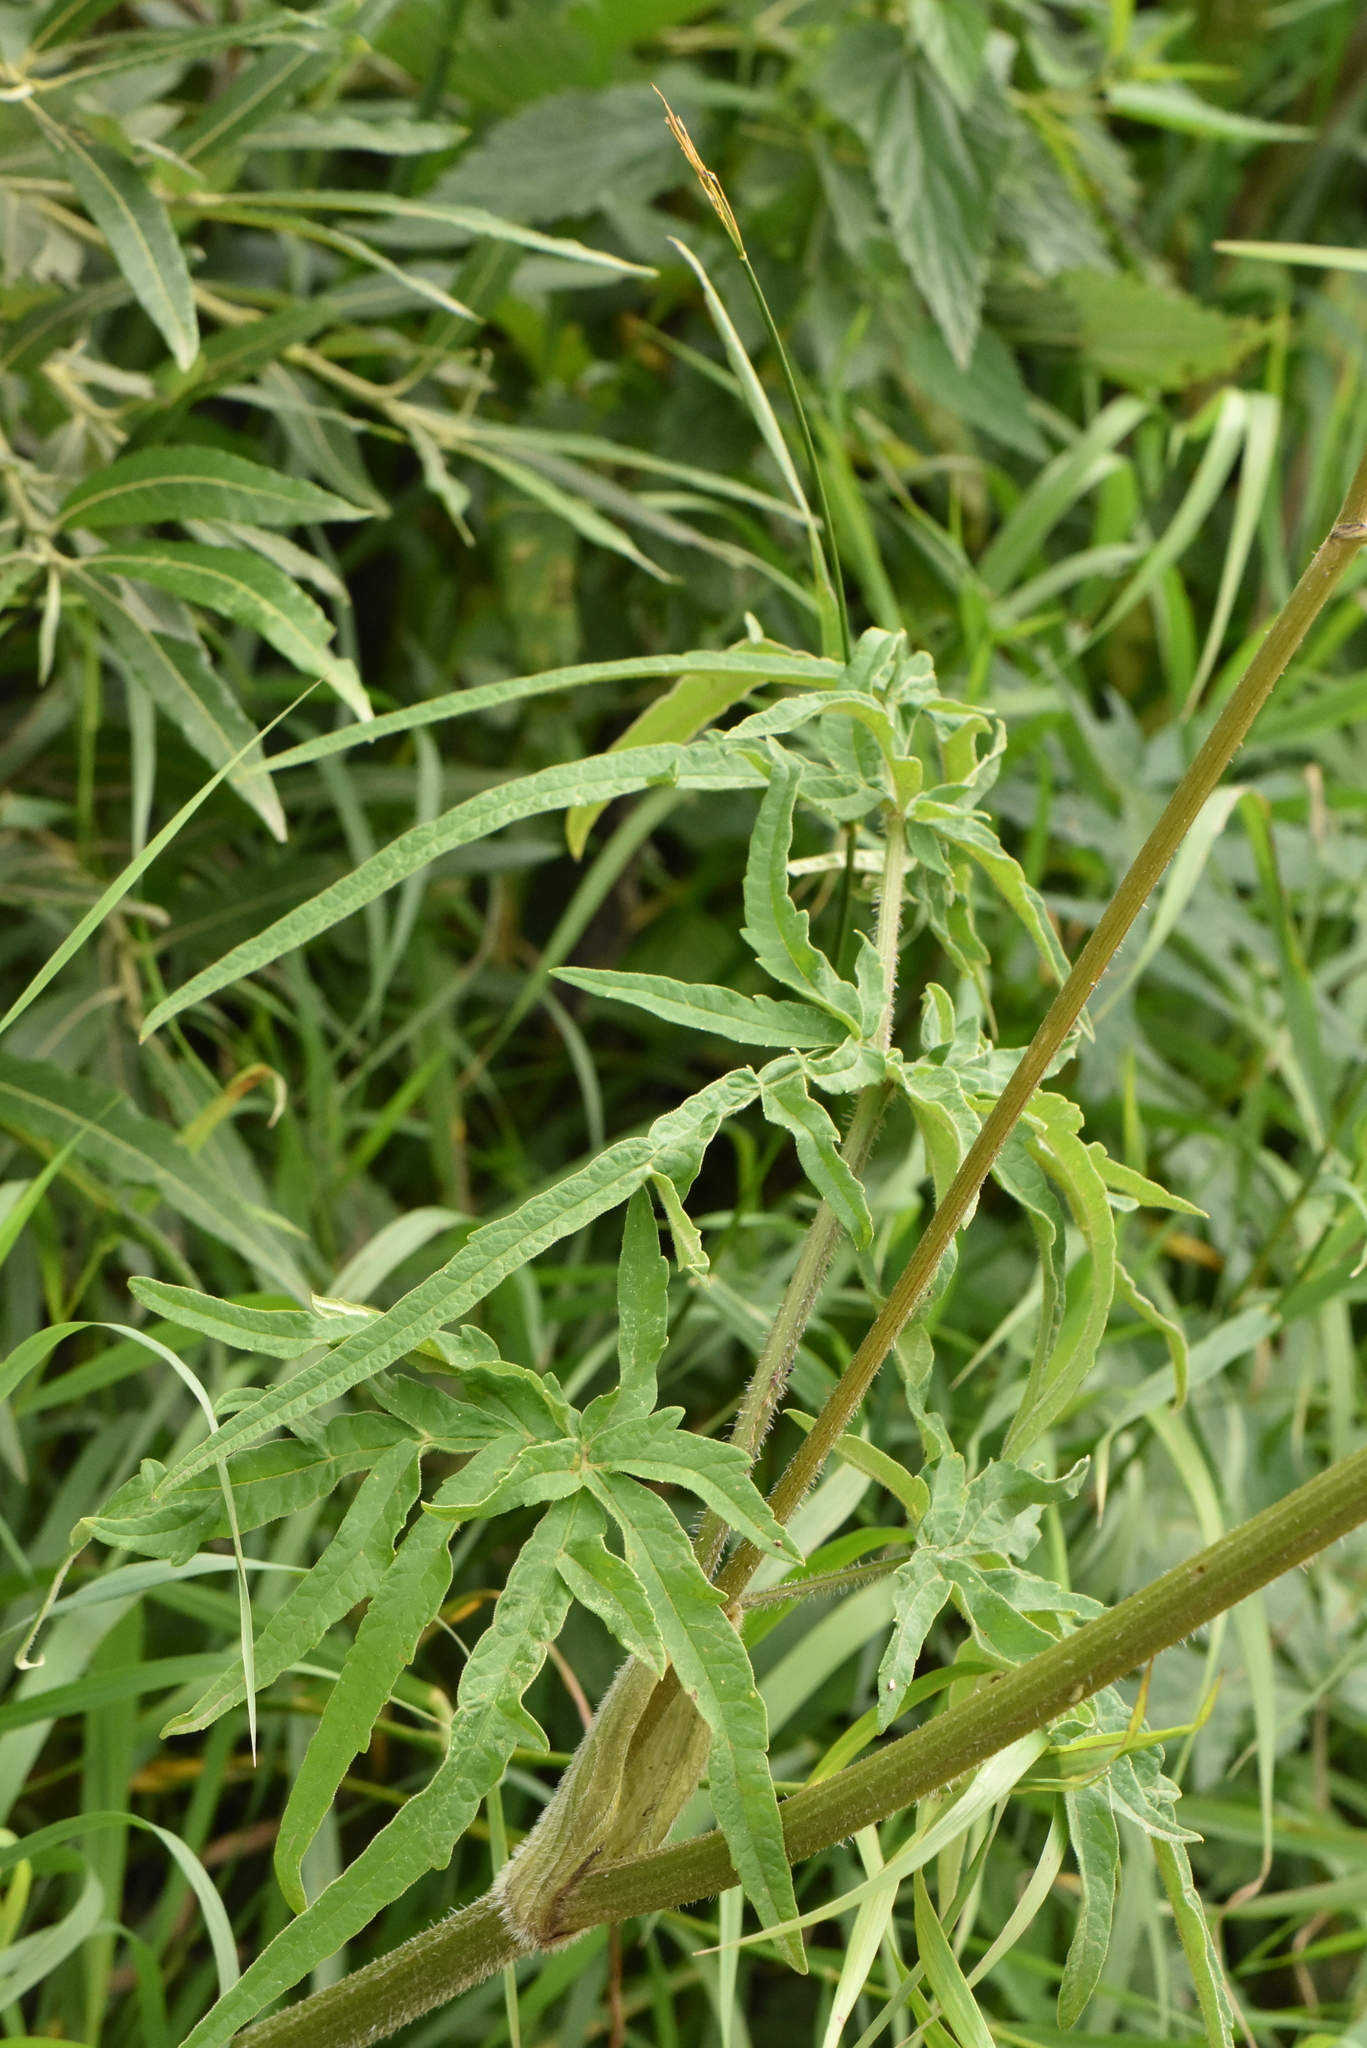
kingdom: Plantae
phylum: Tracheophyta
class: Magnoliopsida
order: Apiales
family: Apiaceae
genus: Heracleum
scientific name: Heracleum sphondylium
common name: Hogweed
